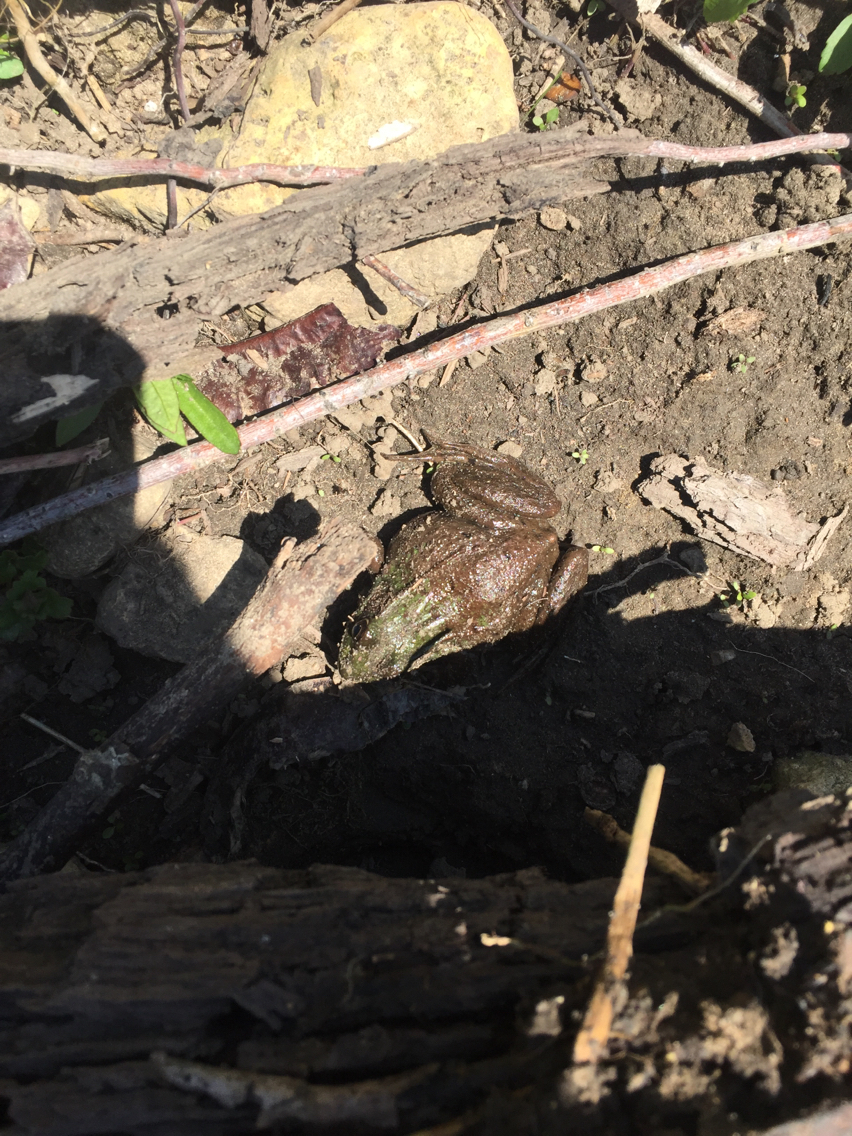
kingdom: Animalia
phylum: Chordata
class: Amphibia
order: Anura
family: Ranidae
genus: Lithobates
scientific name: Lithobates clamitans
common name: Green frog
